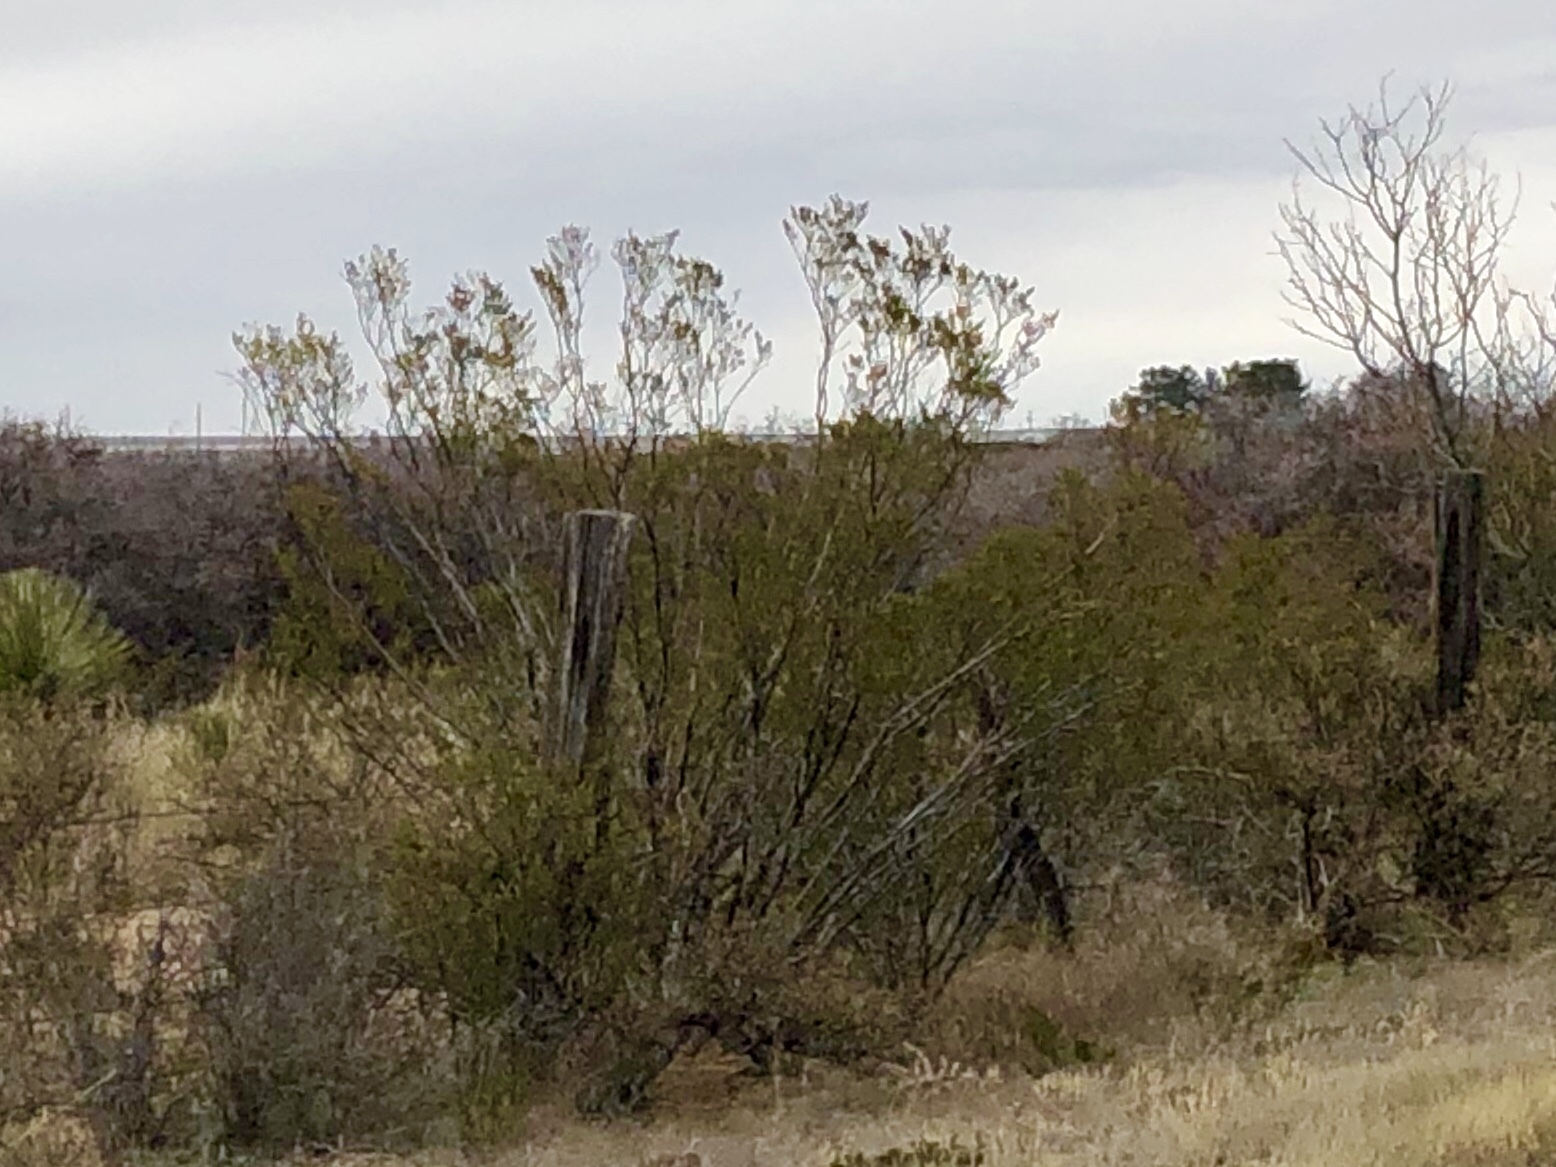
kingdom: Plantae
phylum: Tracheophyta
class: Magnoliopsida
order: Zygophyllales
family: Zygophyllaceae
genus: Larrea
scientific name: Larrea tridentata
